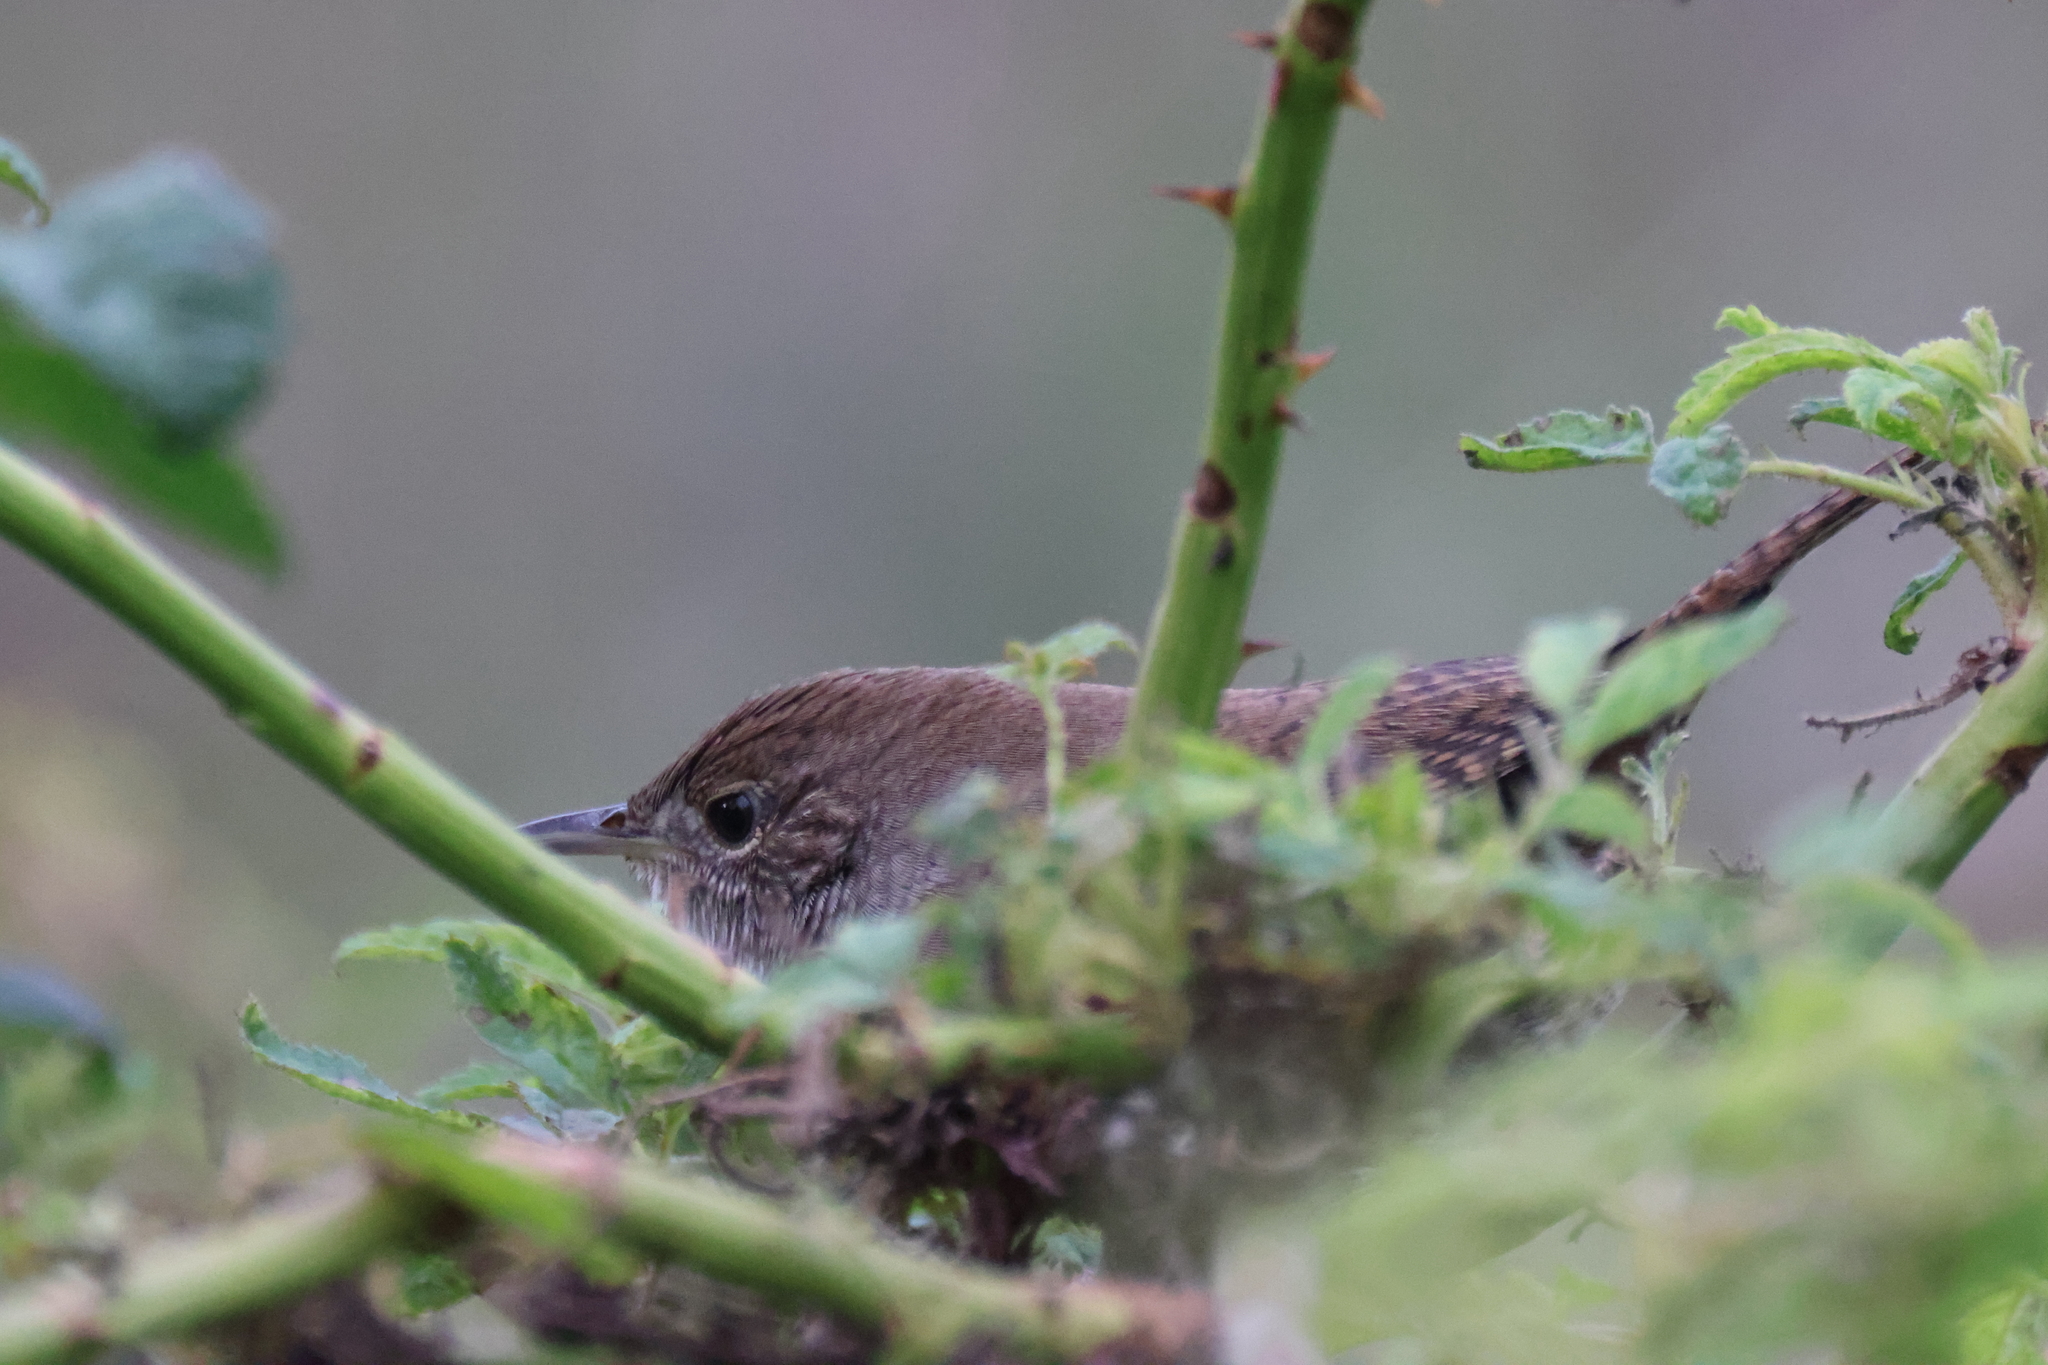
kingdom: Animalia
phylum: Chordata
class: Aves
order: Passeriformes
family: Troglodytidae
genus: Troglodytes
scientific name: Troglodytes aedon
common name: House wren
